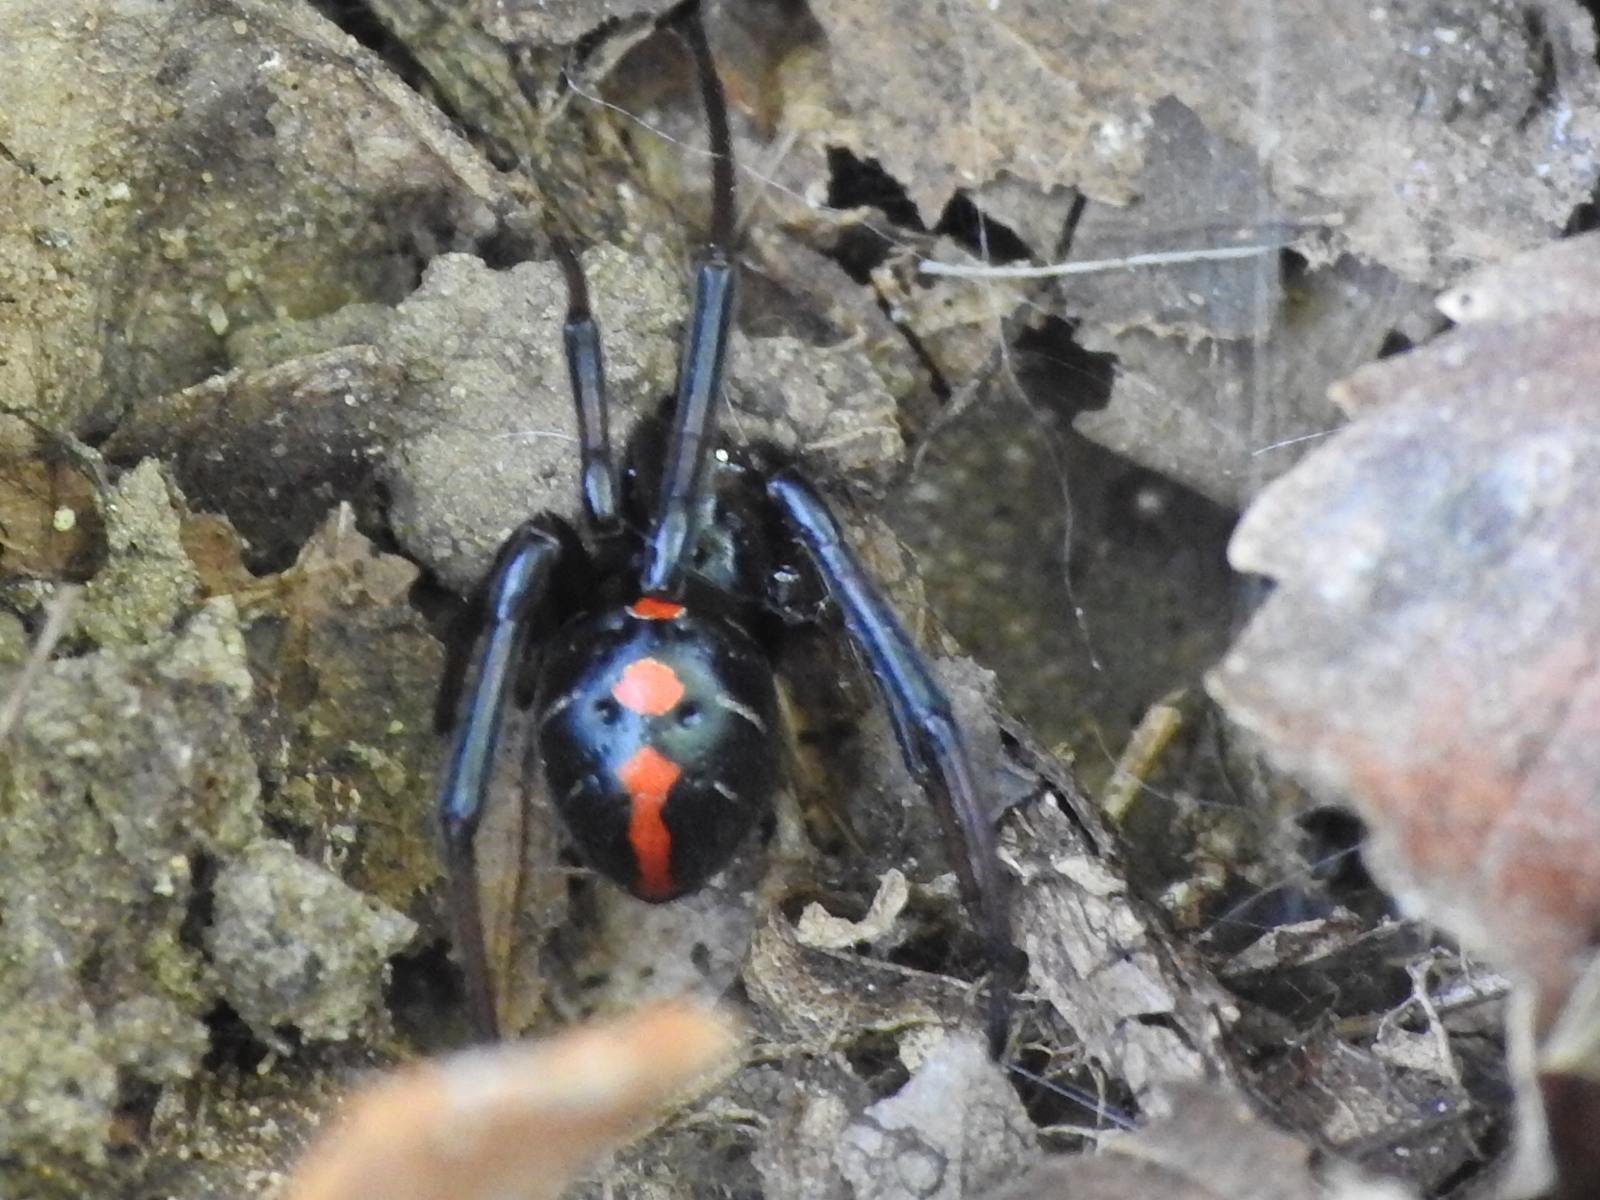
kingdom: Animalia
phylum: Arthropoda
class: Arachnida
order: Araneae
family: Theridiidae
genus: Latrodectus
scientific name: Latrodectus variolus
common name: Northern black widow
